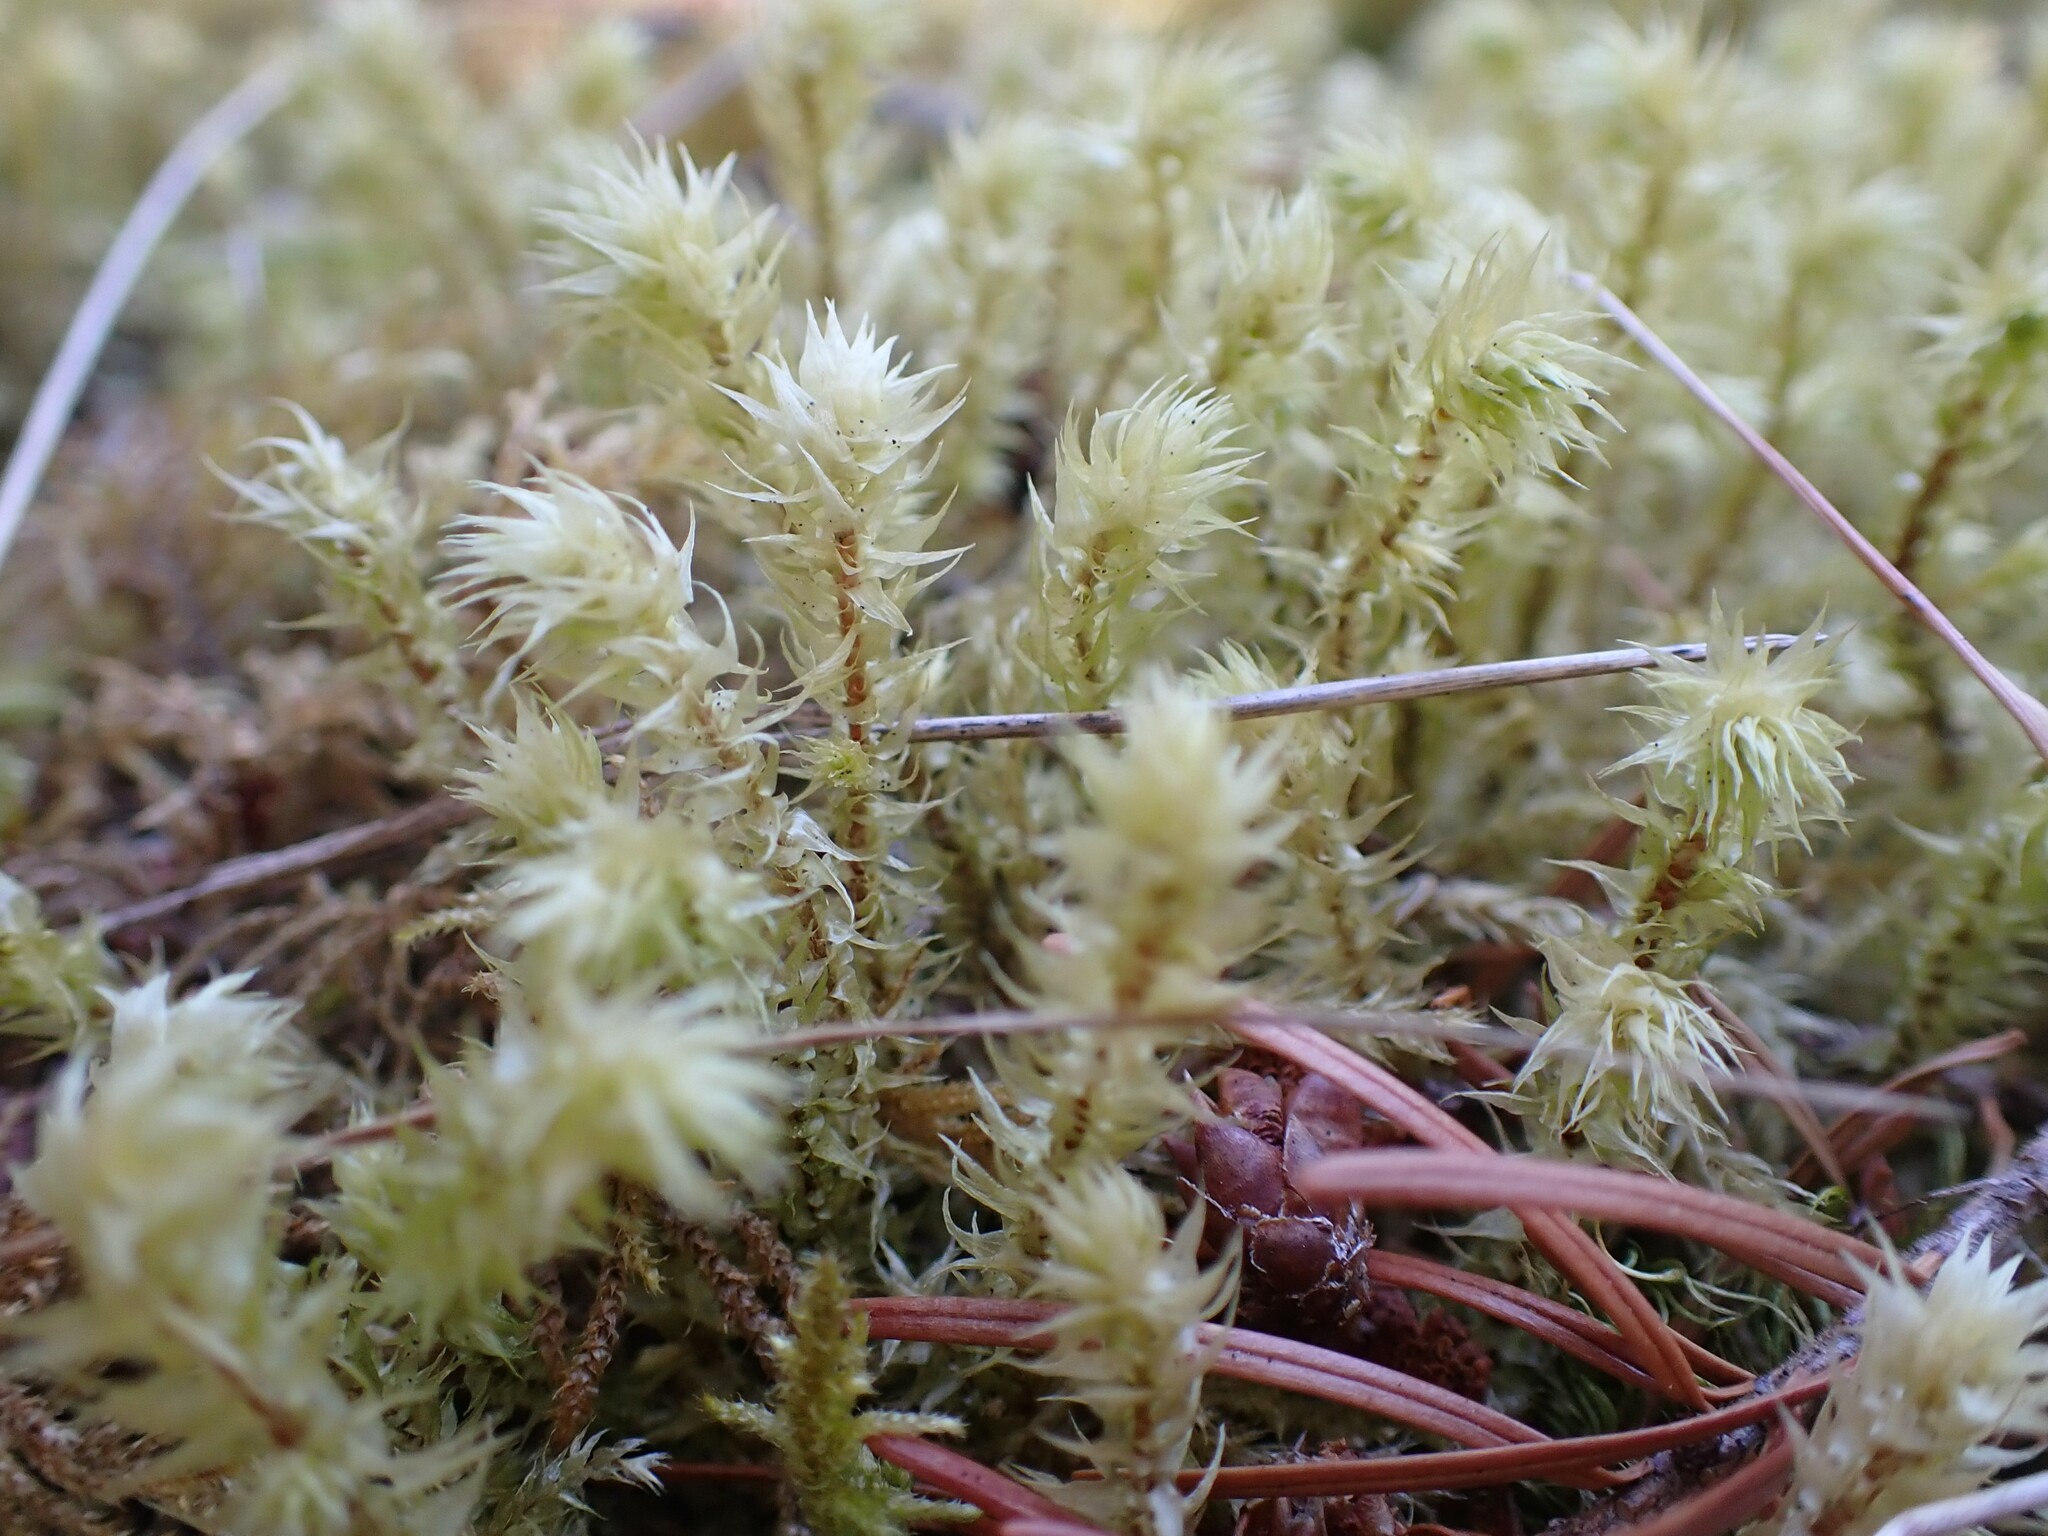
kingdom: Plantae
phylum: Bryophyta
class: Bryopsida
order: Hypnales
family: Hylocomiaceae
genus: Hylocomiadelphus
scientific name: Hylocomiadelphus triquetrus
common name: Rough goose neck moss
